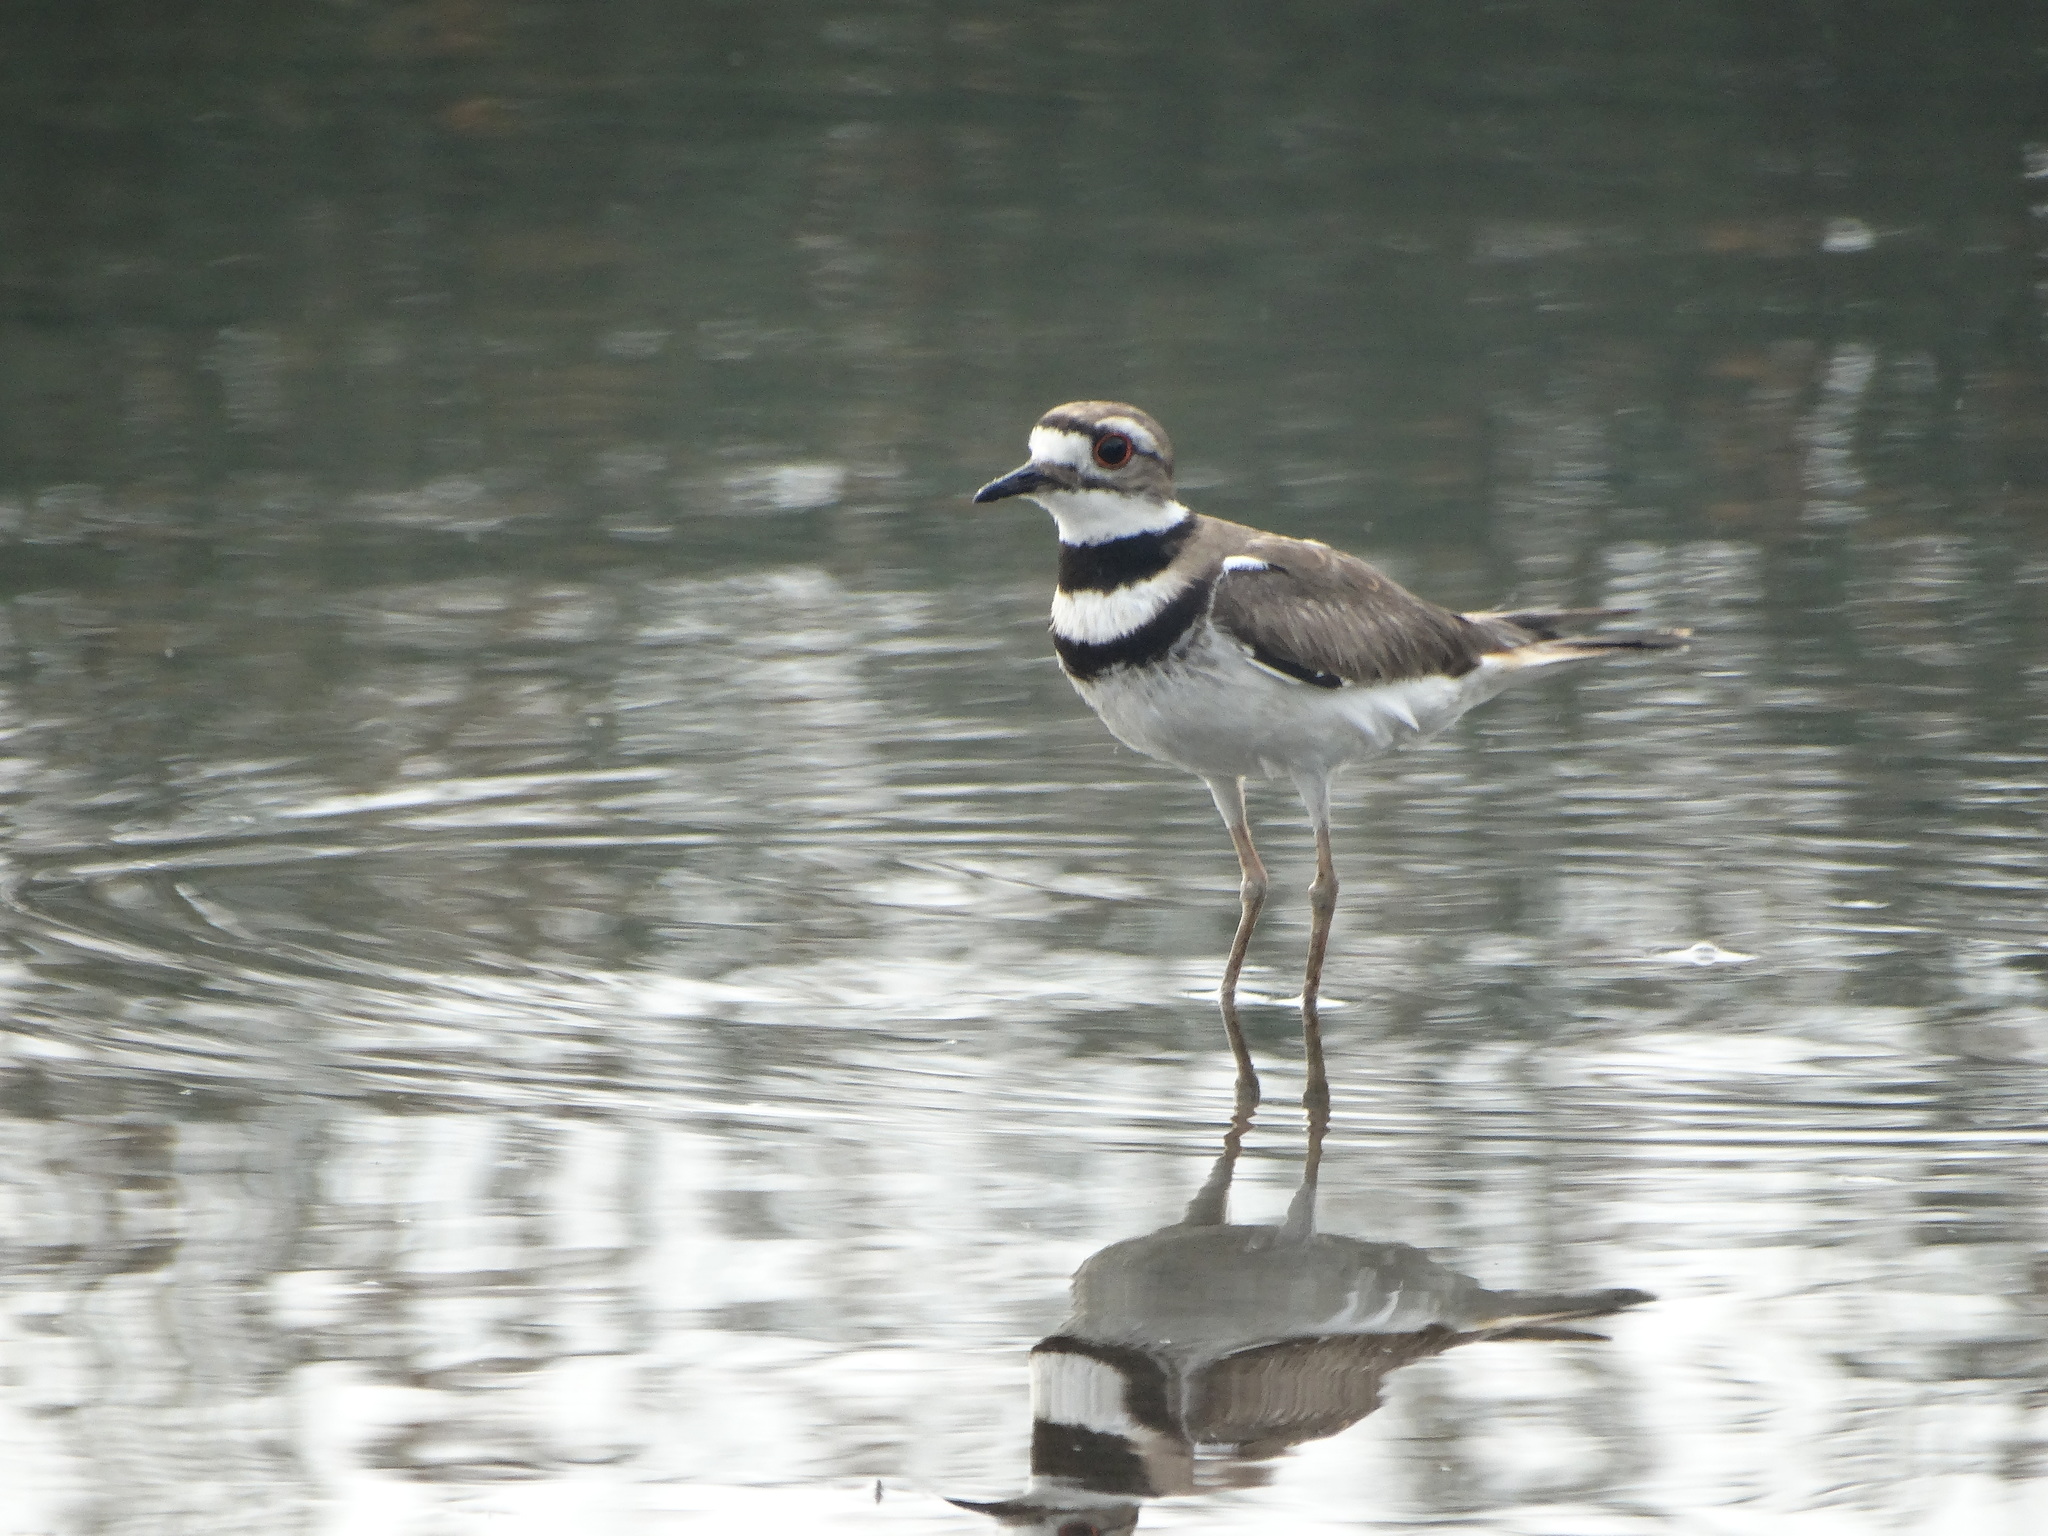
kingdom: Animalia
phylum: Chordata
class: Aves
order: Charadriiformes
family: Charadriidae
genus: Charadrius
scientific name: Charadrius vociferus
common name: Killdeer
